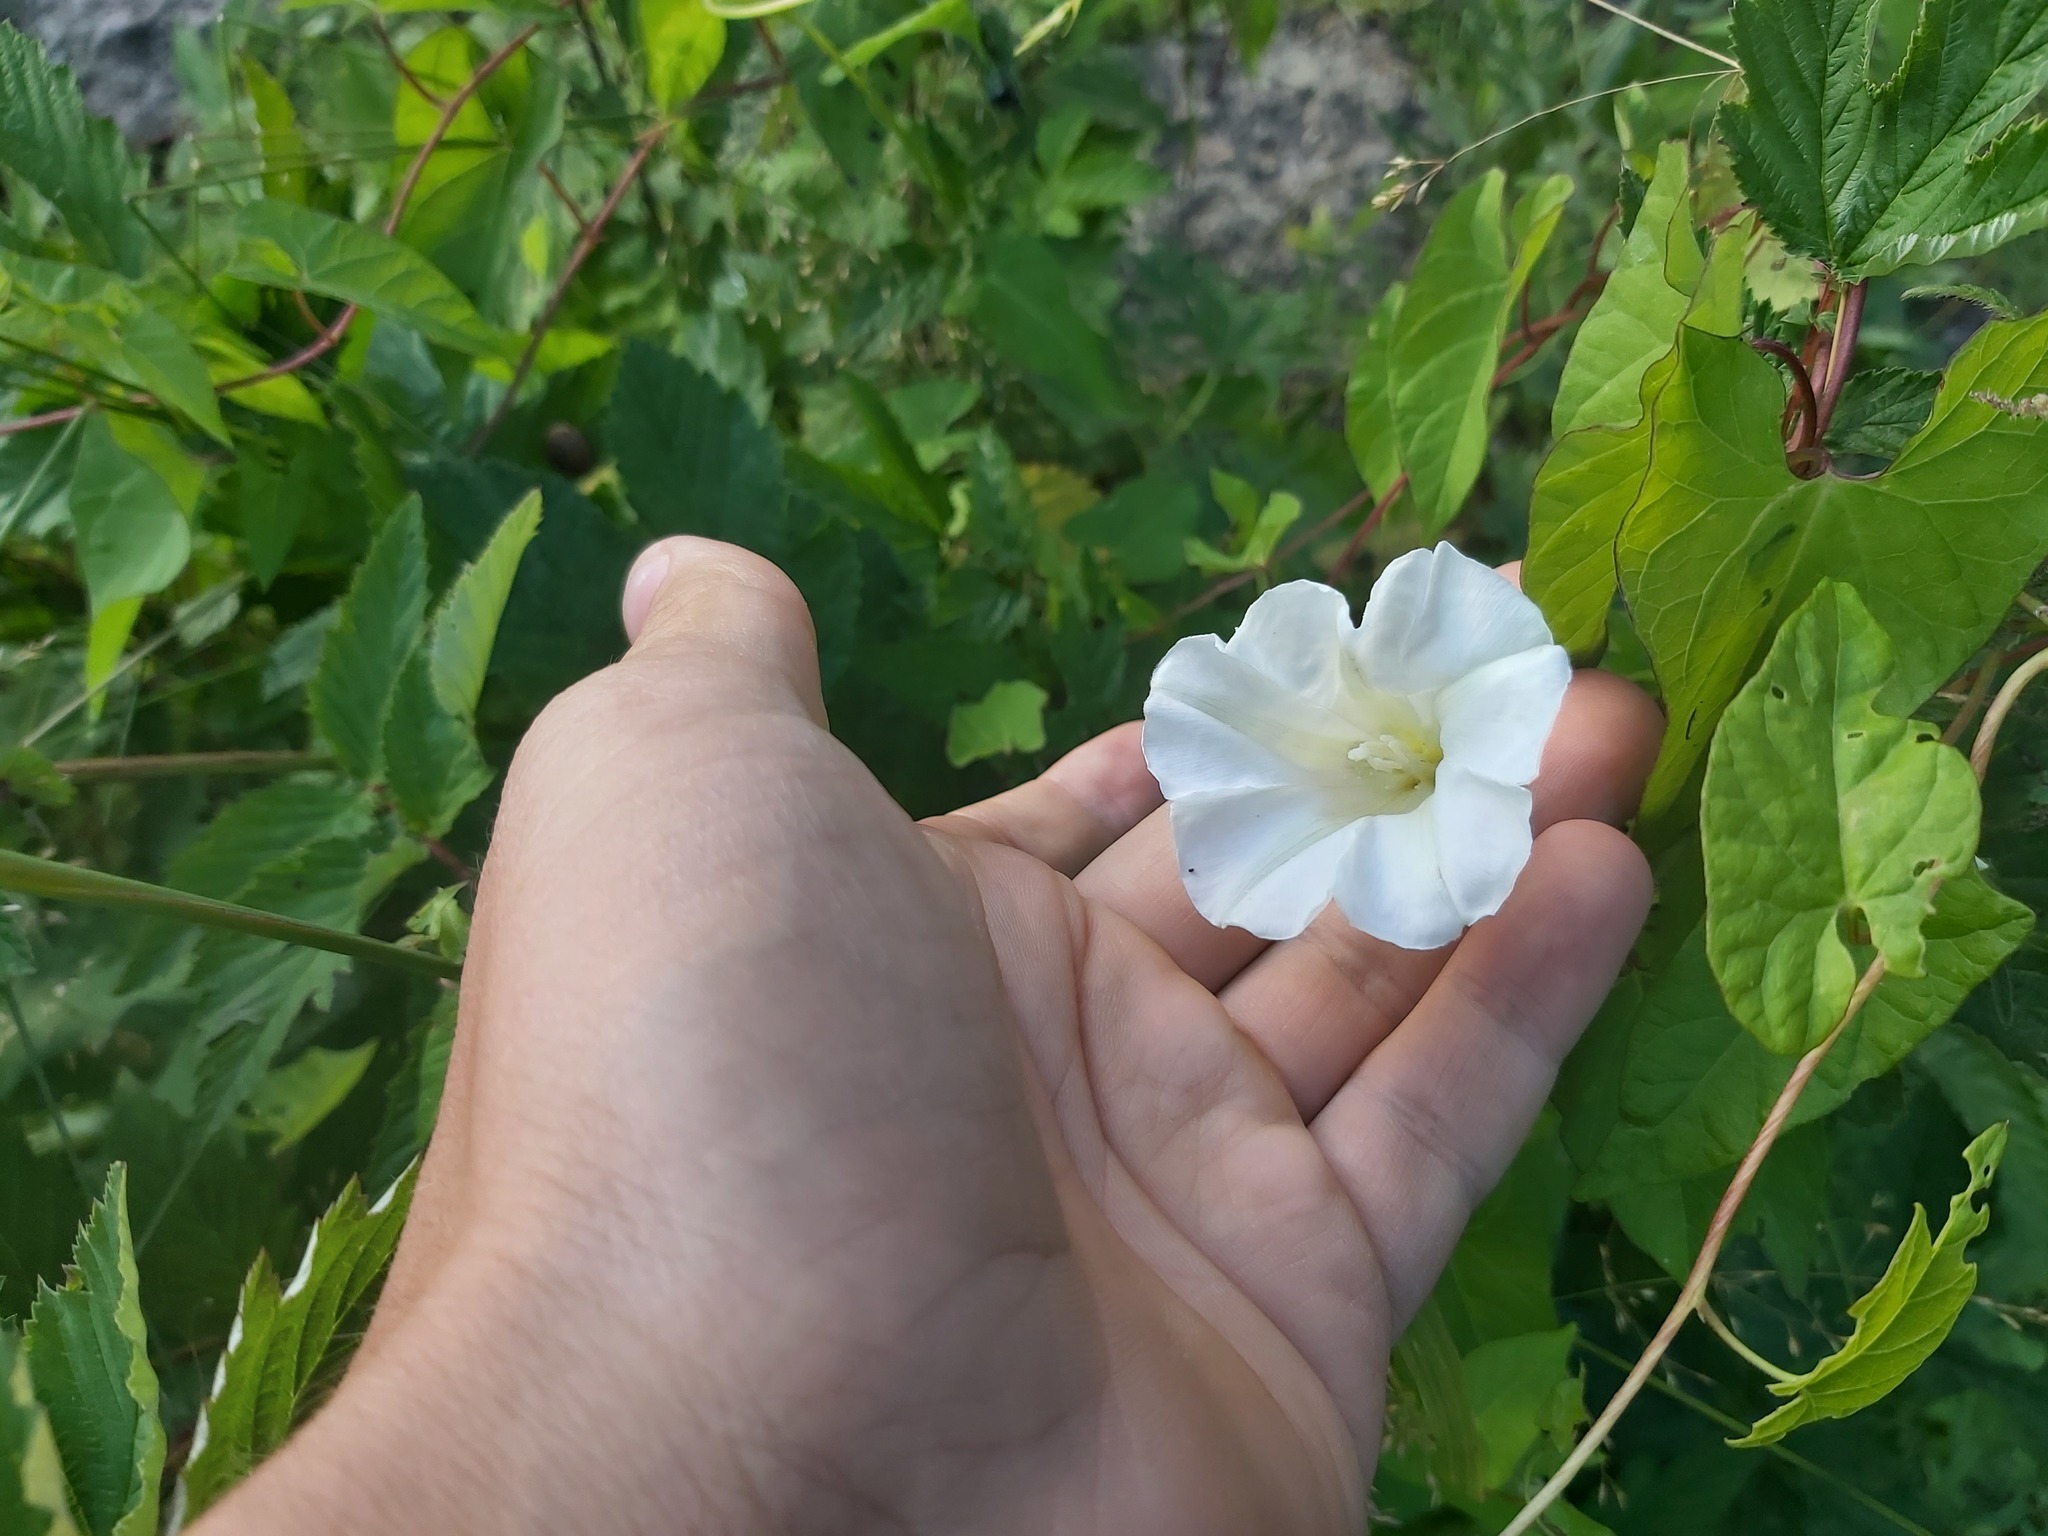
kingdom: Plantae
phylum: Tracheophyta
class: Magnoliopsida
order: Solanales
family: Convolvulaceae
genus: Calystegia
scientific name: Calystegia sepium
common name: Hedge bindweed
